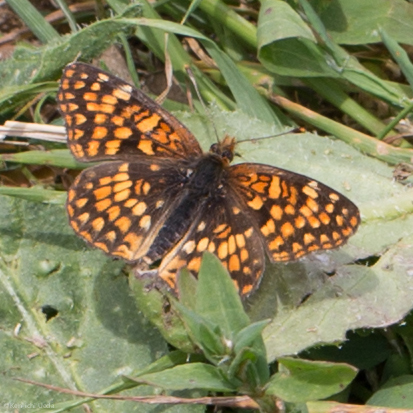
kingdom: Animalia
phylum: Arthropoda
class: Insecta
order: Lepidoptera
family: Nymphalidae
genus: Chlosyne
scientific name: Chlosyne palla
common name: Northern checkerspot
